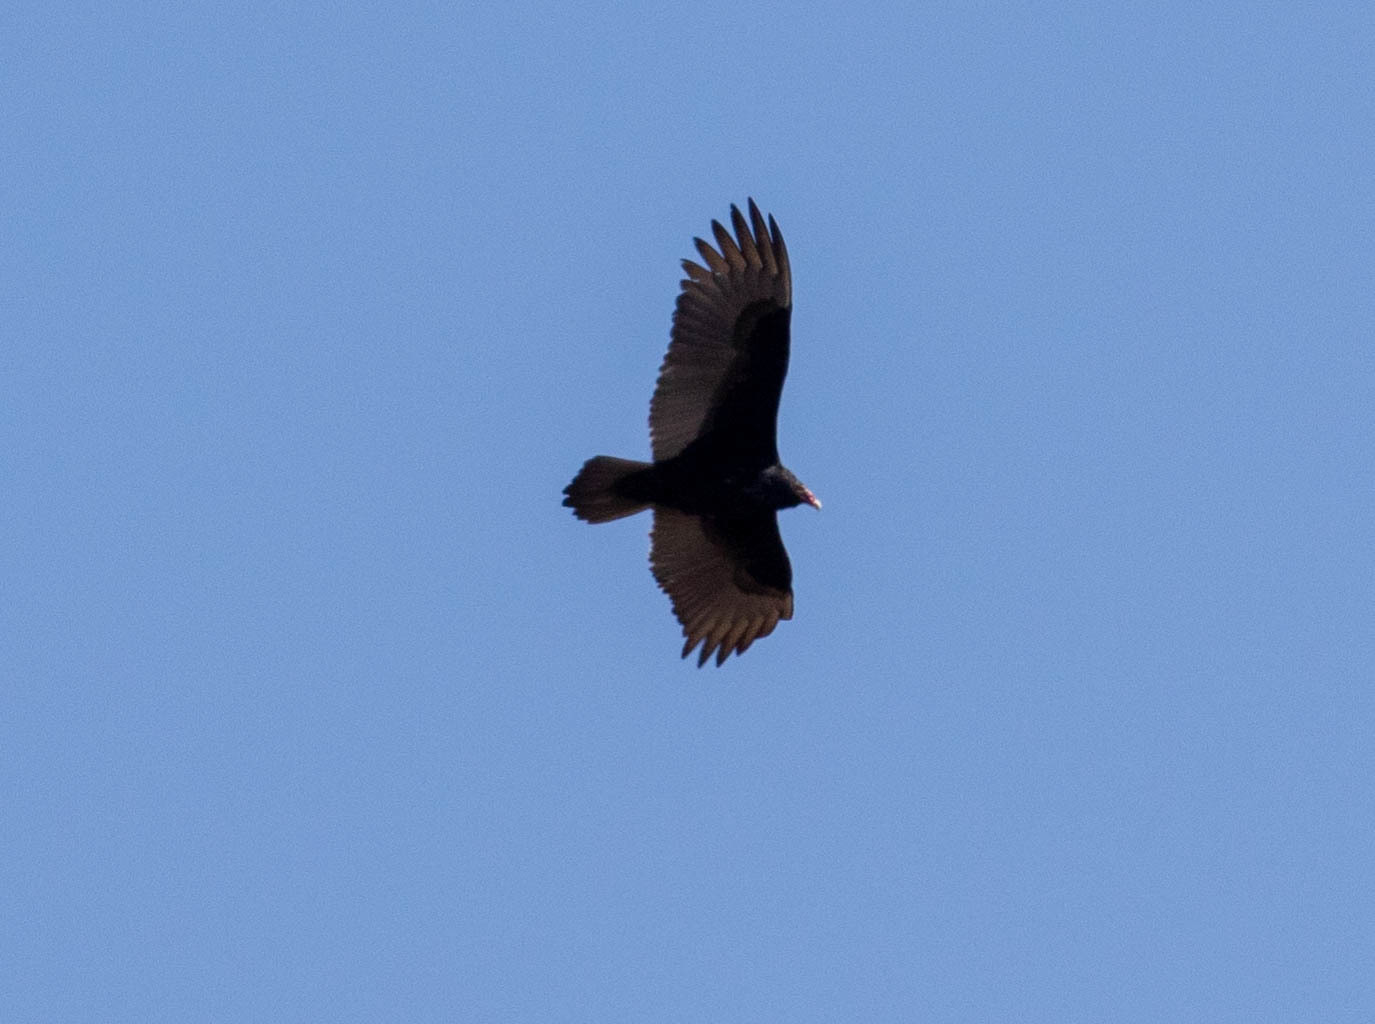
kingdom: Animalia
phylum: Chordata
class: Aves
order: Accipitriformes
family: Cathartidae
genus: Cathartes
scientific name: Cathartes aura
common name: Turkey vulture
